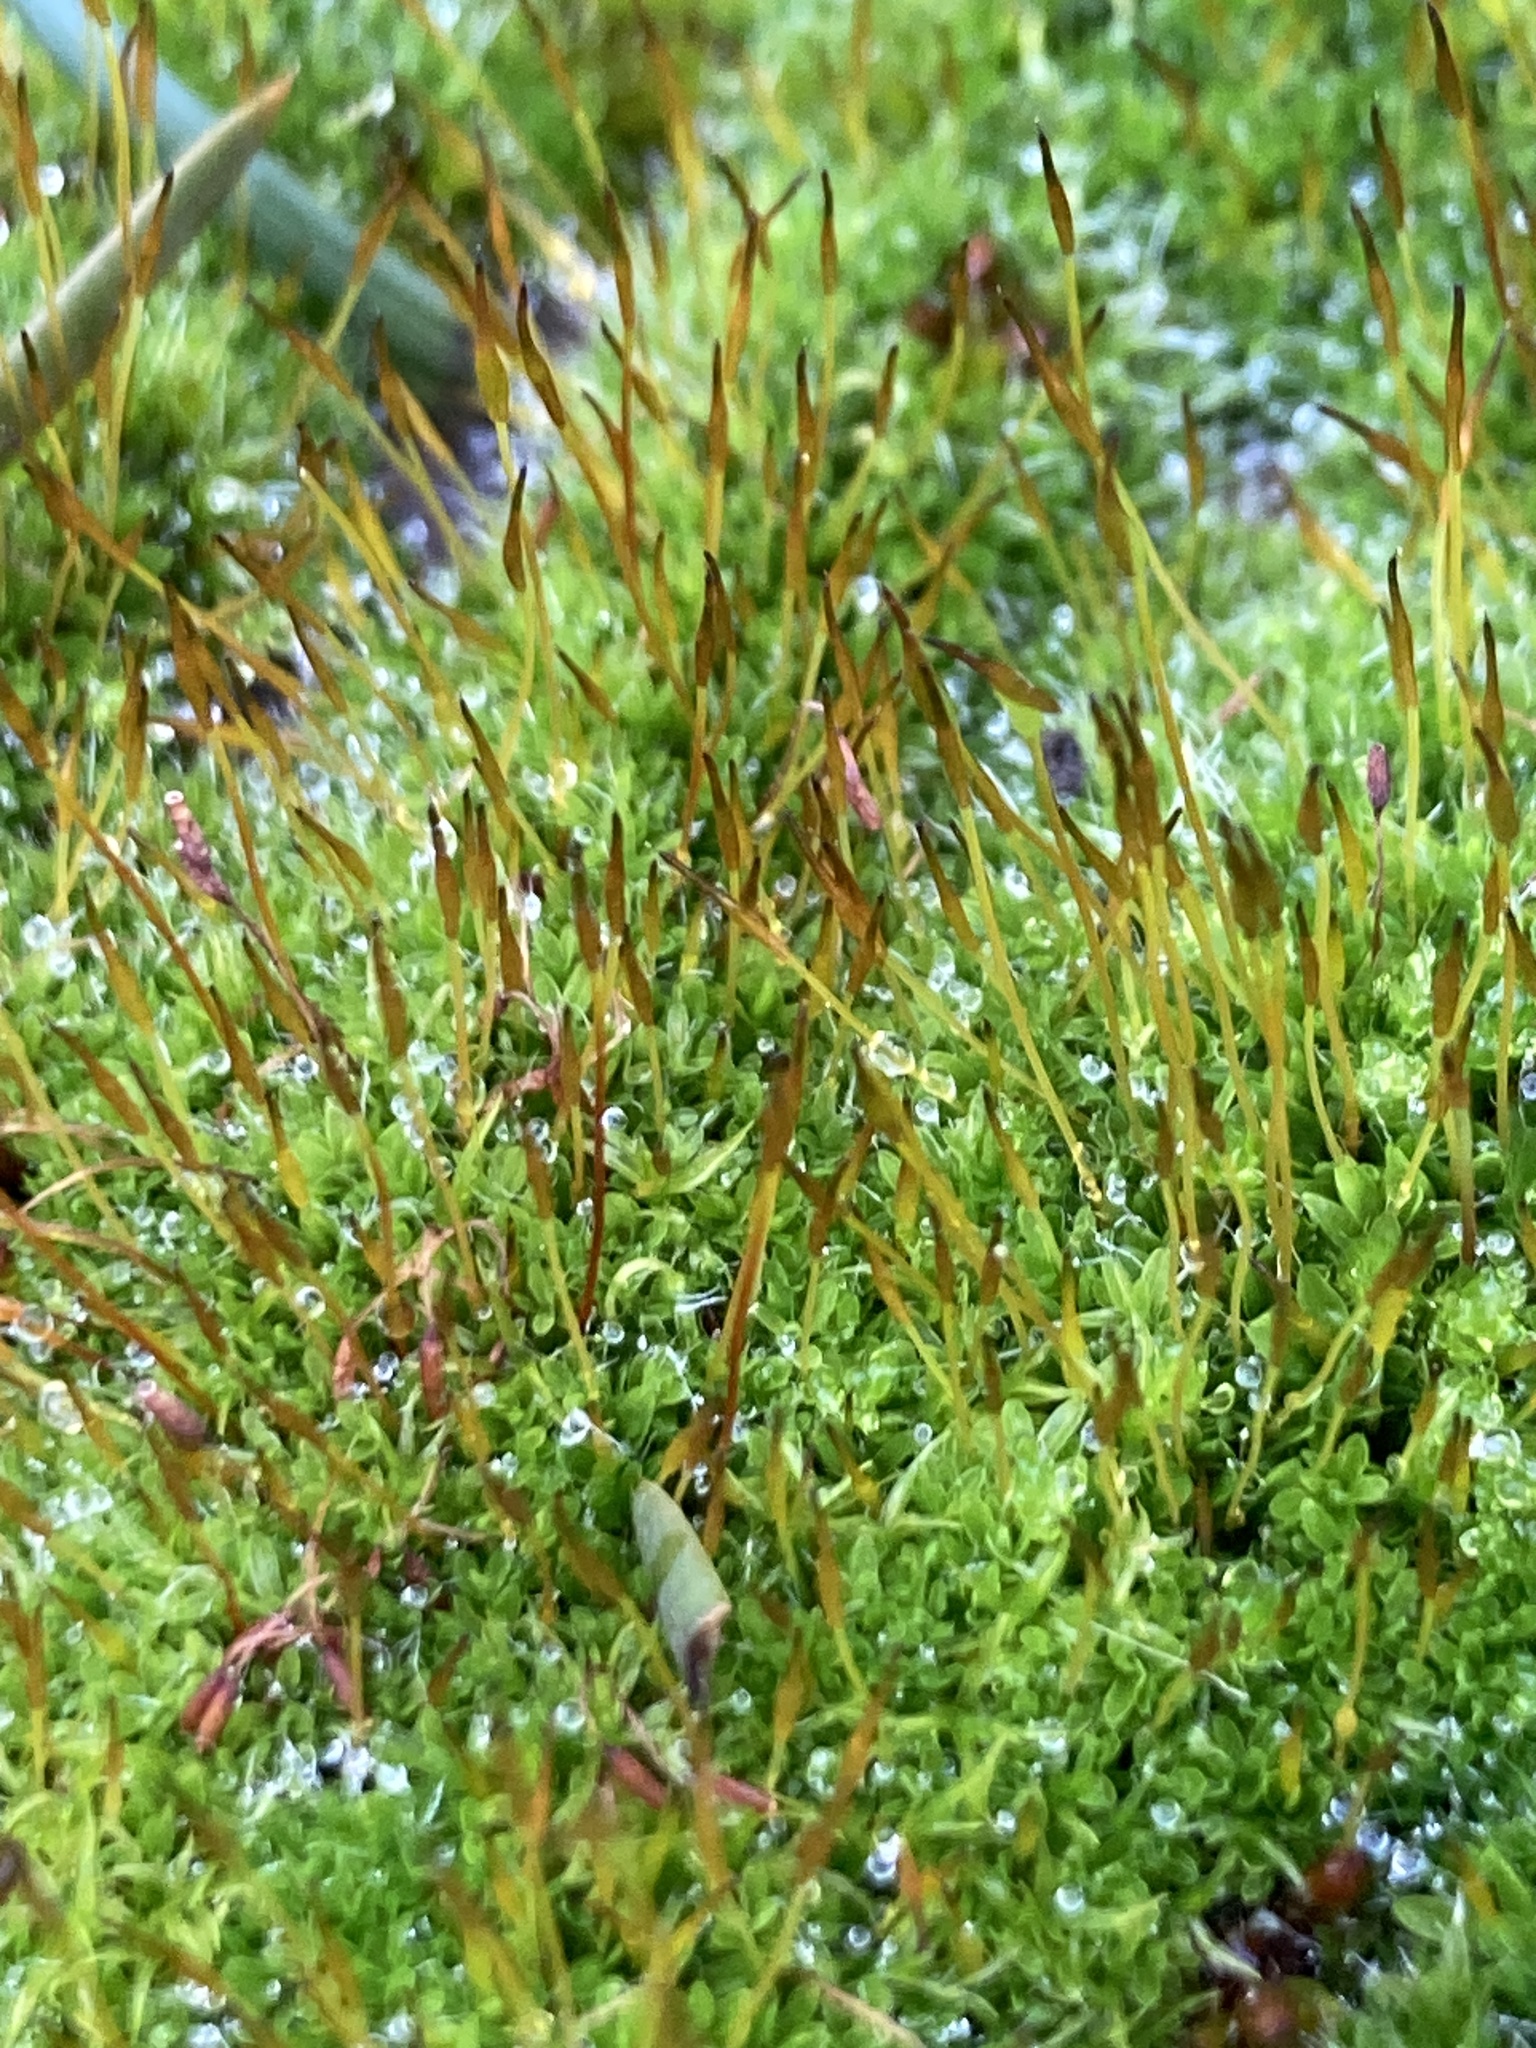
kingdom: Plantae
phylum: Bryophyta
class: Bryopsida
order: Pottiales
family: Pottiaceae
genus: Tortula
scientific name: Tortula muralis
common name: Wall screw-moss
